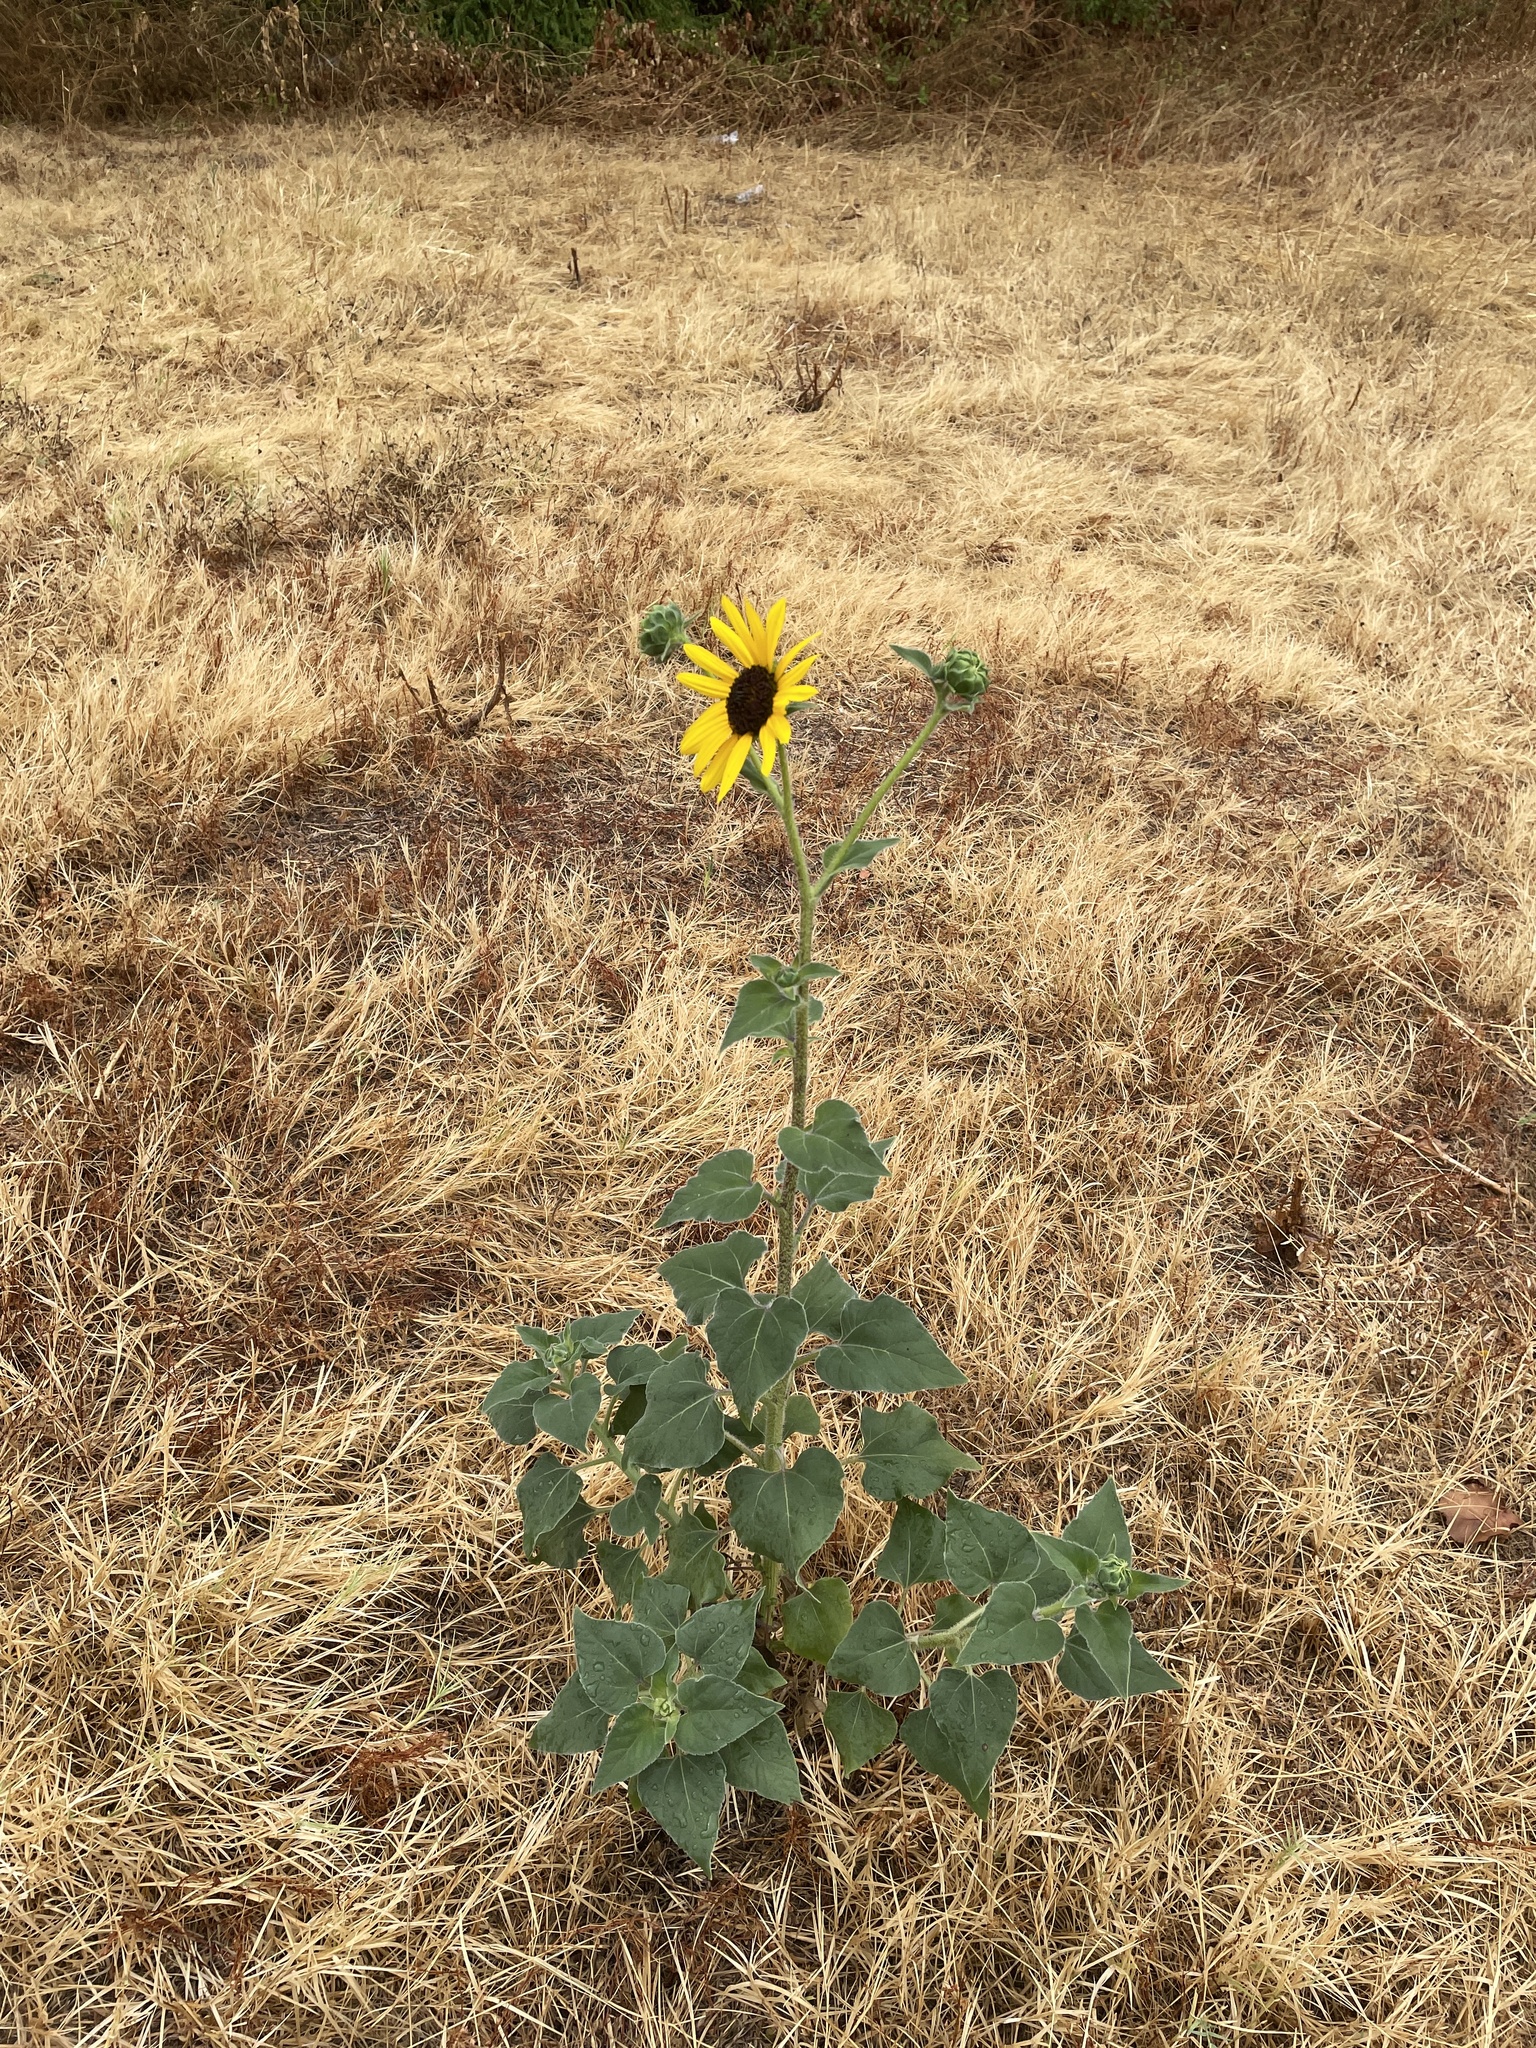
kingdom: Plantae
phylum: Tracheophyta
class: Magnoliopsida
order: Asterales
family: Asteraceae
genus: Helianthus
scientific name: Helianthus annuus
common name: Sunflower
